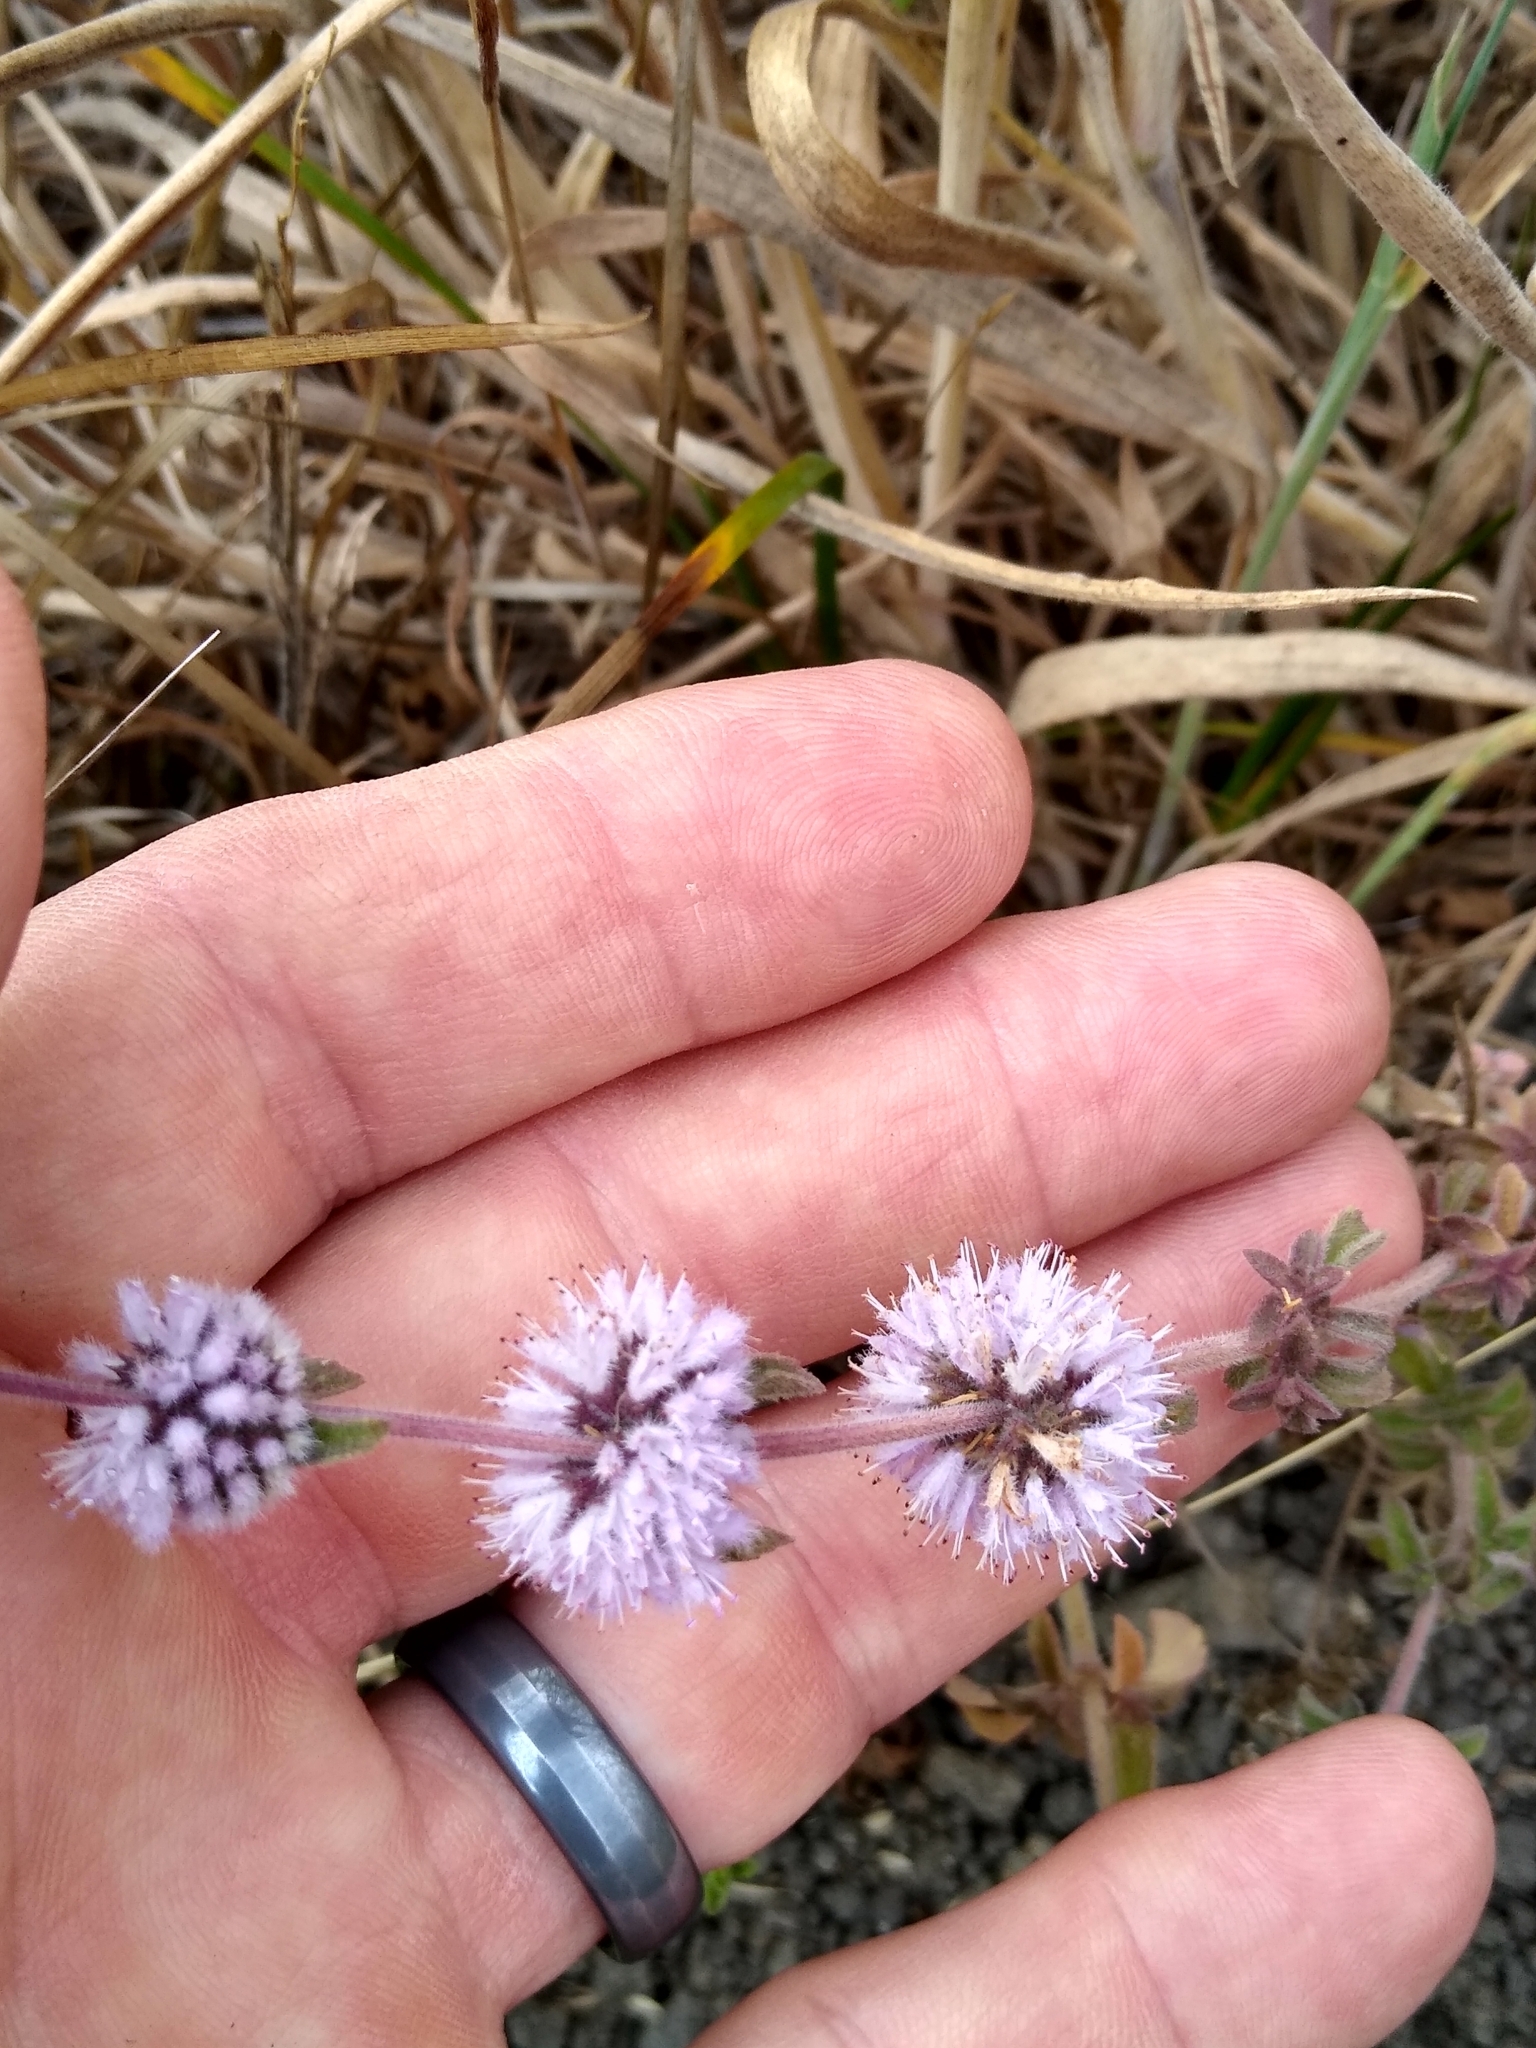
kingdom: Plantae
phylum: Tracheophyta
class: Magnoliopsida
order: Lamiales
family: Lamiaceae
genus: Mentha
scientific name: Mentha pulegium
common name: Pennyroyal
